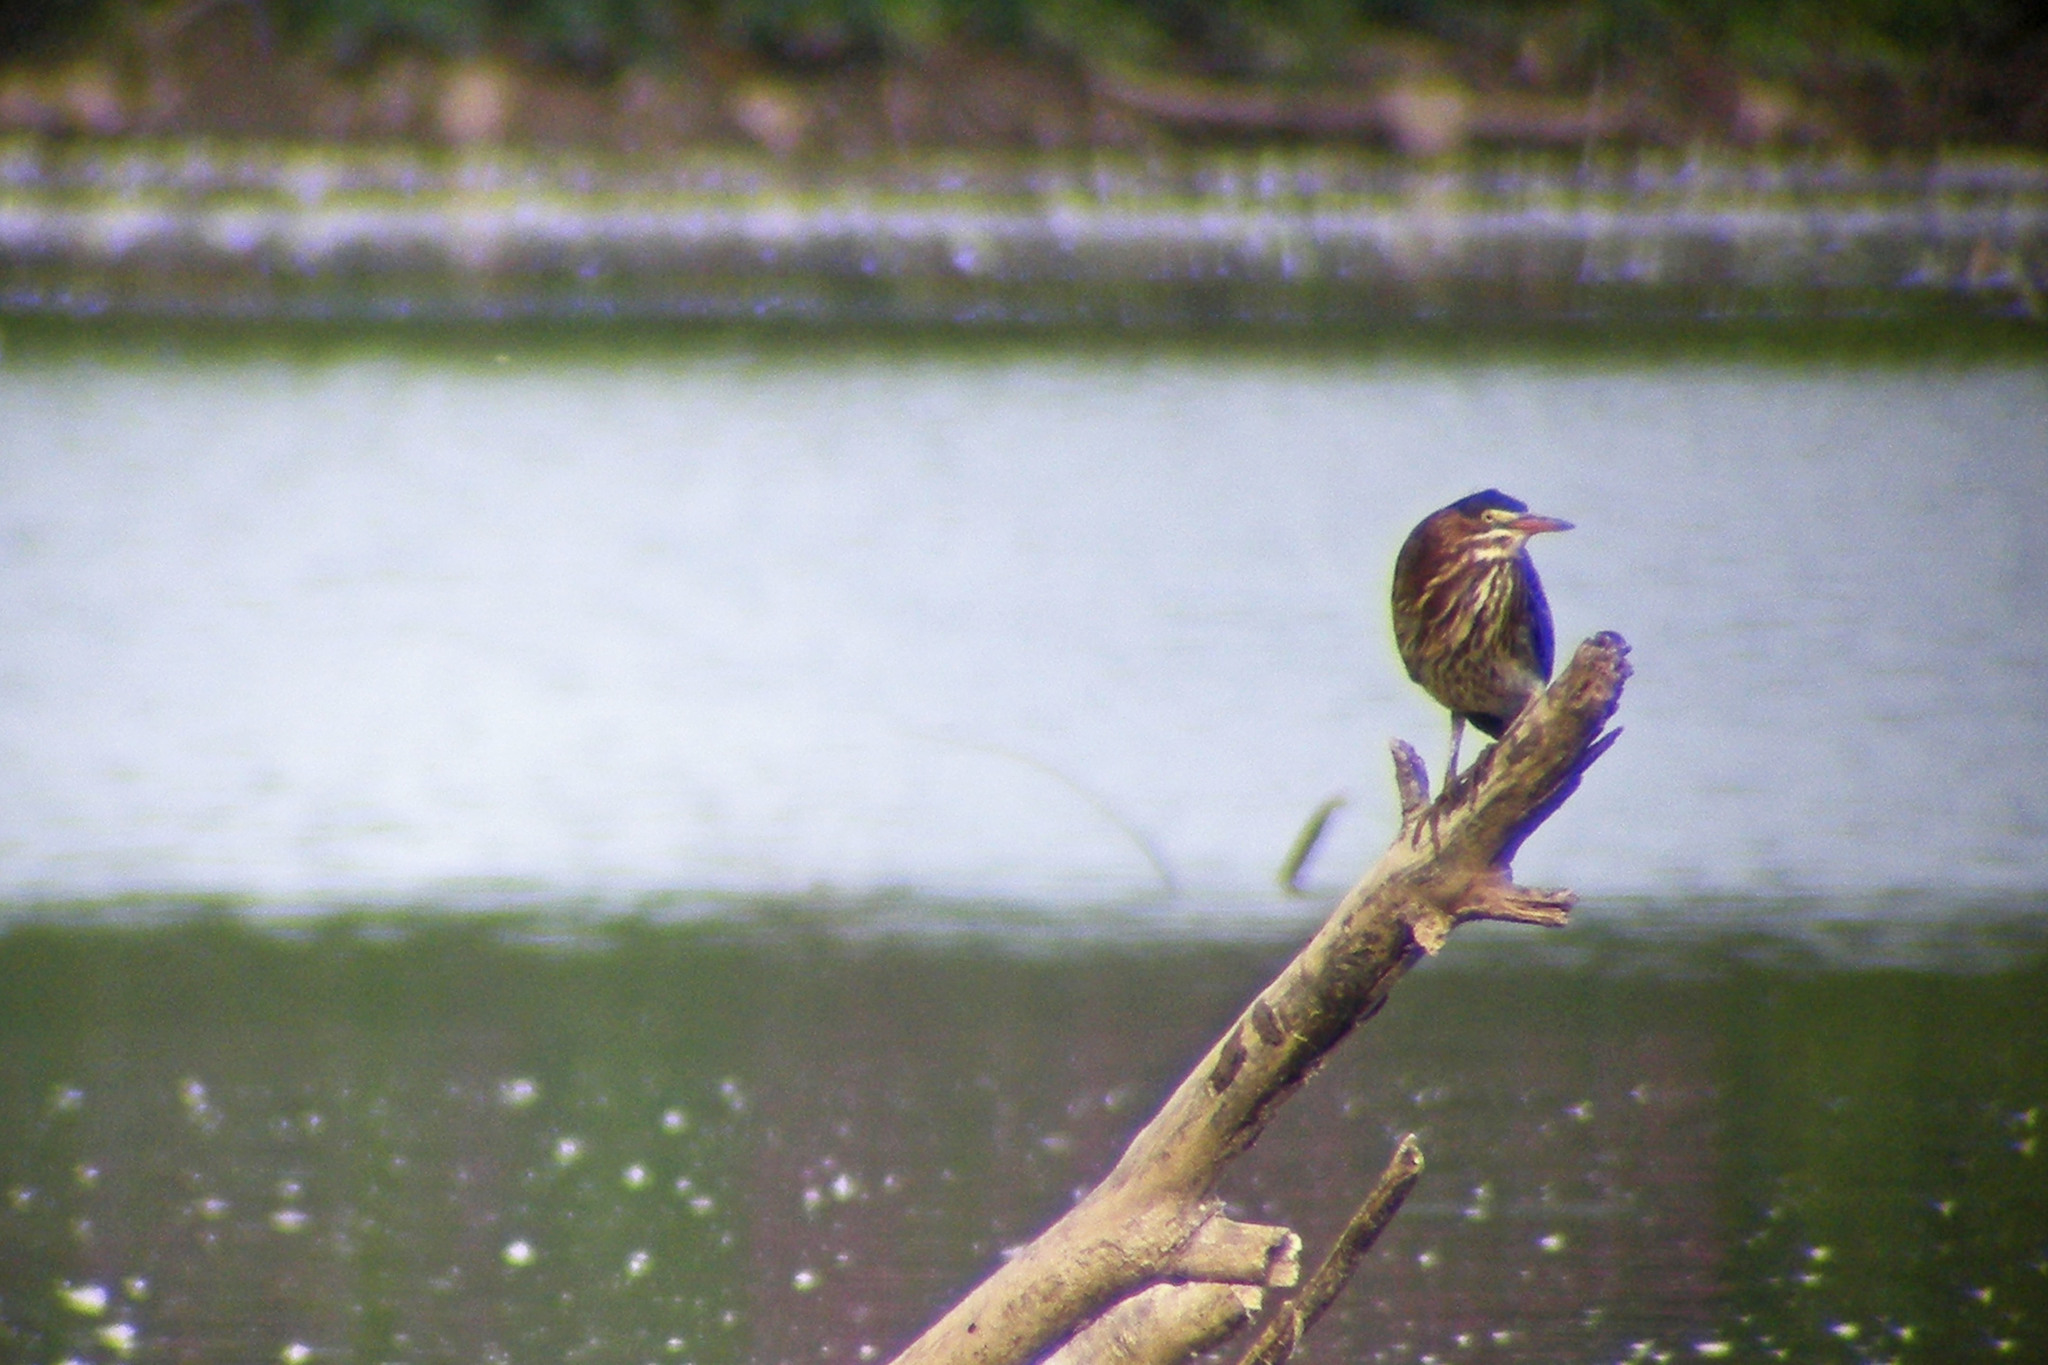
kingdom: Animalia
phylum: Chordata
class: Aves
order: Pelecaniformes
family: Ardeidae
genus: Butorides
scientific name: Butorides virescens
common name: Green heron
